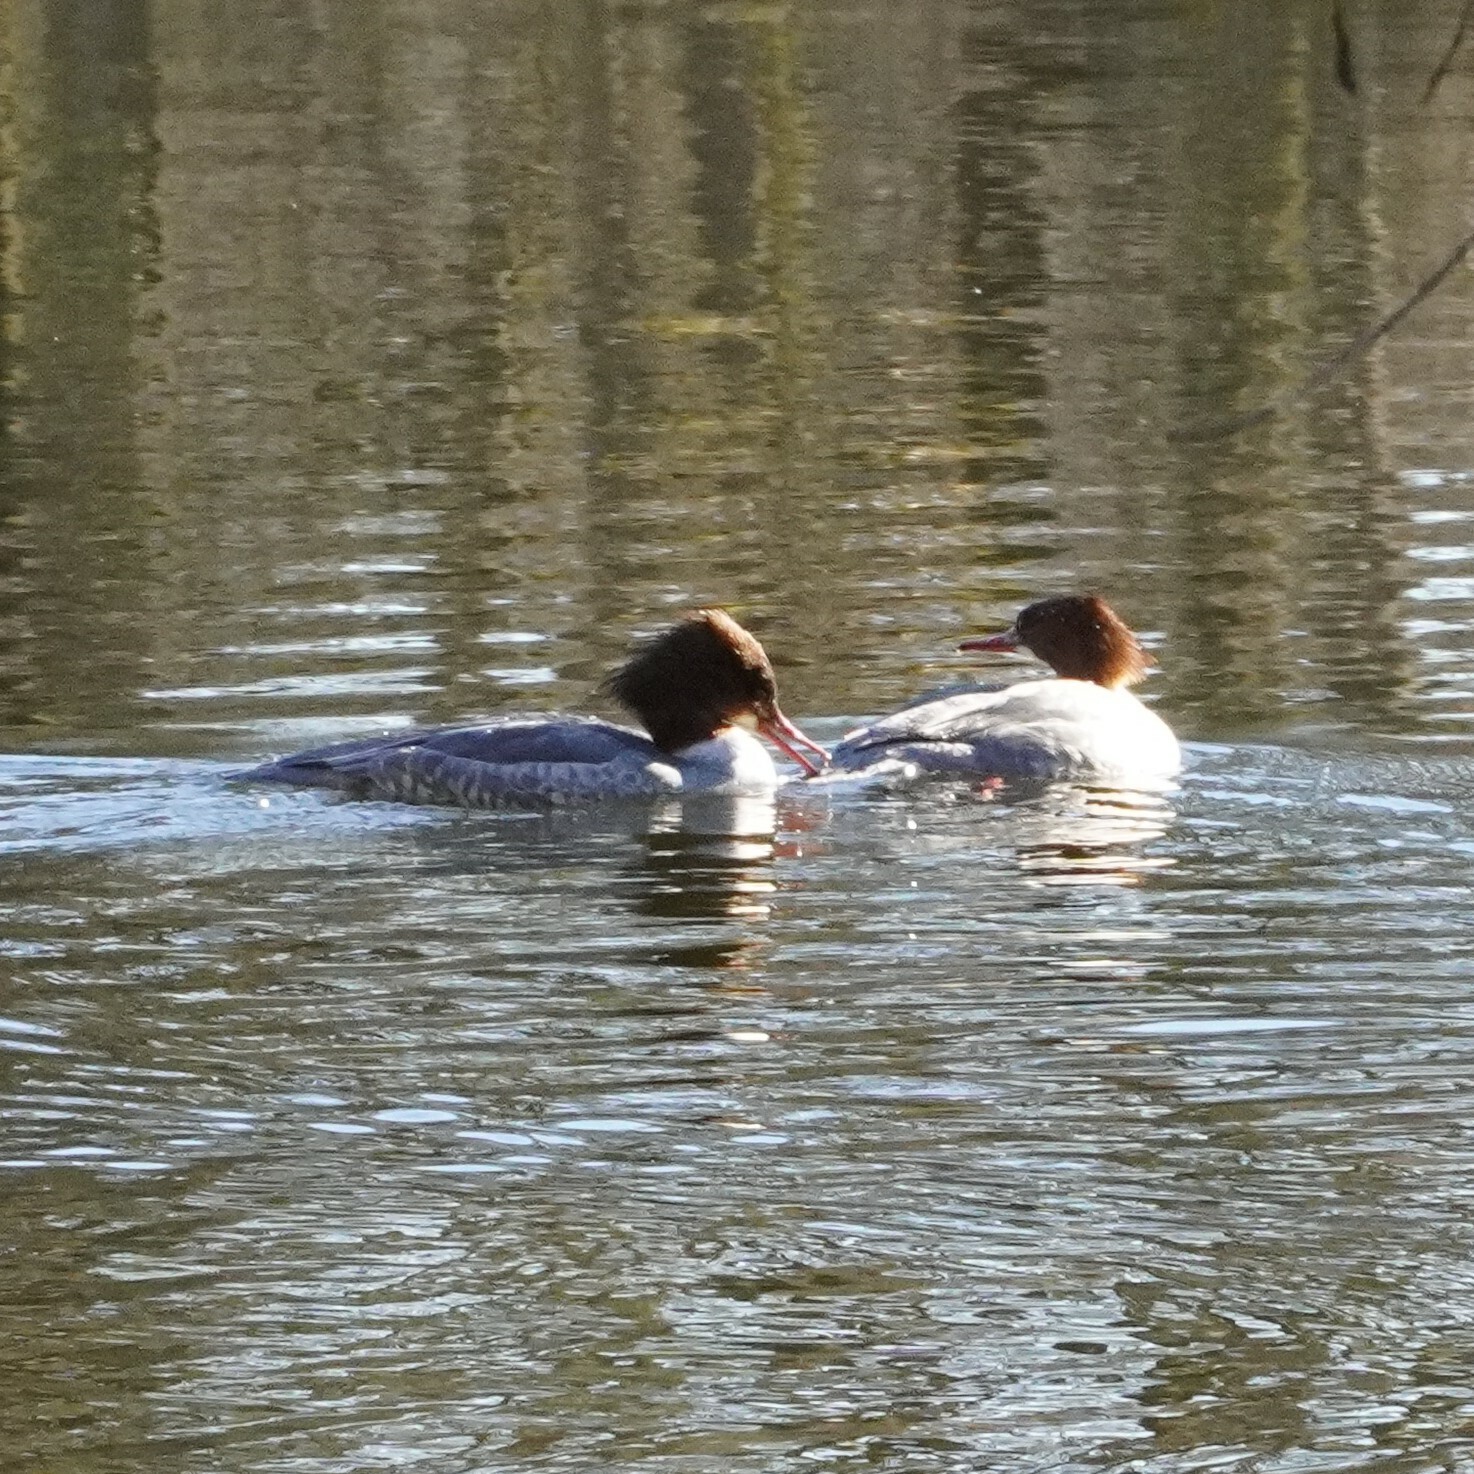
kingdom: Animalia
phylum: Chordata
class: Aves
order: Anseriformes
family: Anatidae
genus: Mergus
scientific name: Mergus merganser
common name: Common merganser
